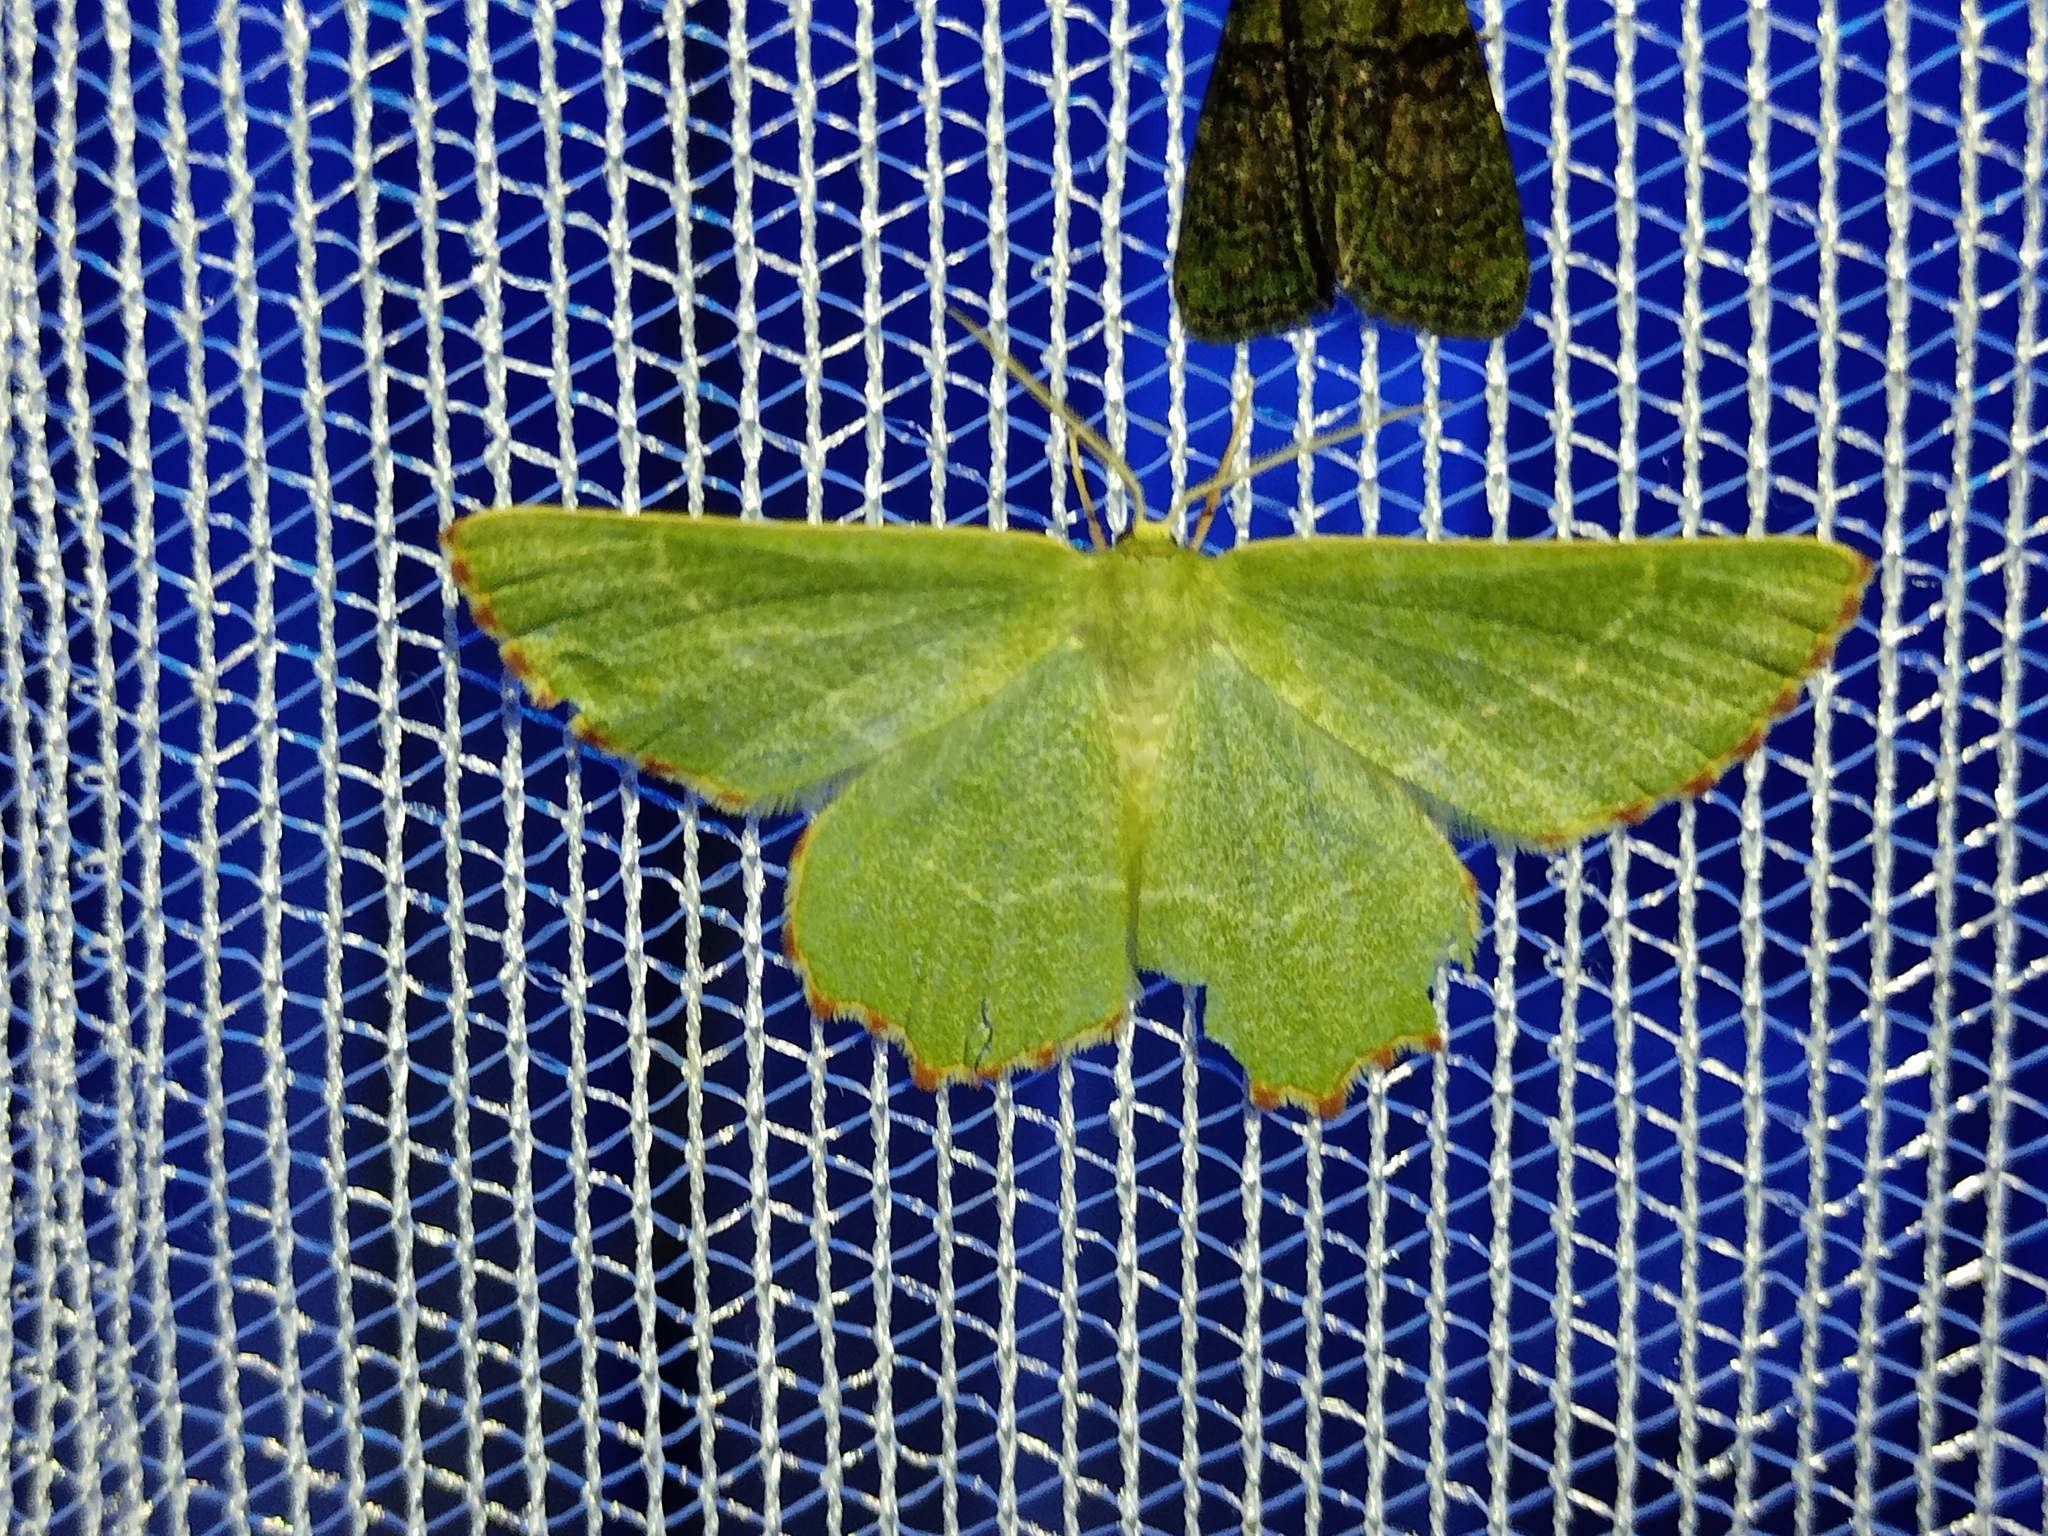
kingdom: Animalia
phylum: Arthropoda
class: Insecta
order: Lepidoptera
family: Geometridae
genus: Thalera
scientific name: Thalera fimbrialis
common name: Sussex emerald
